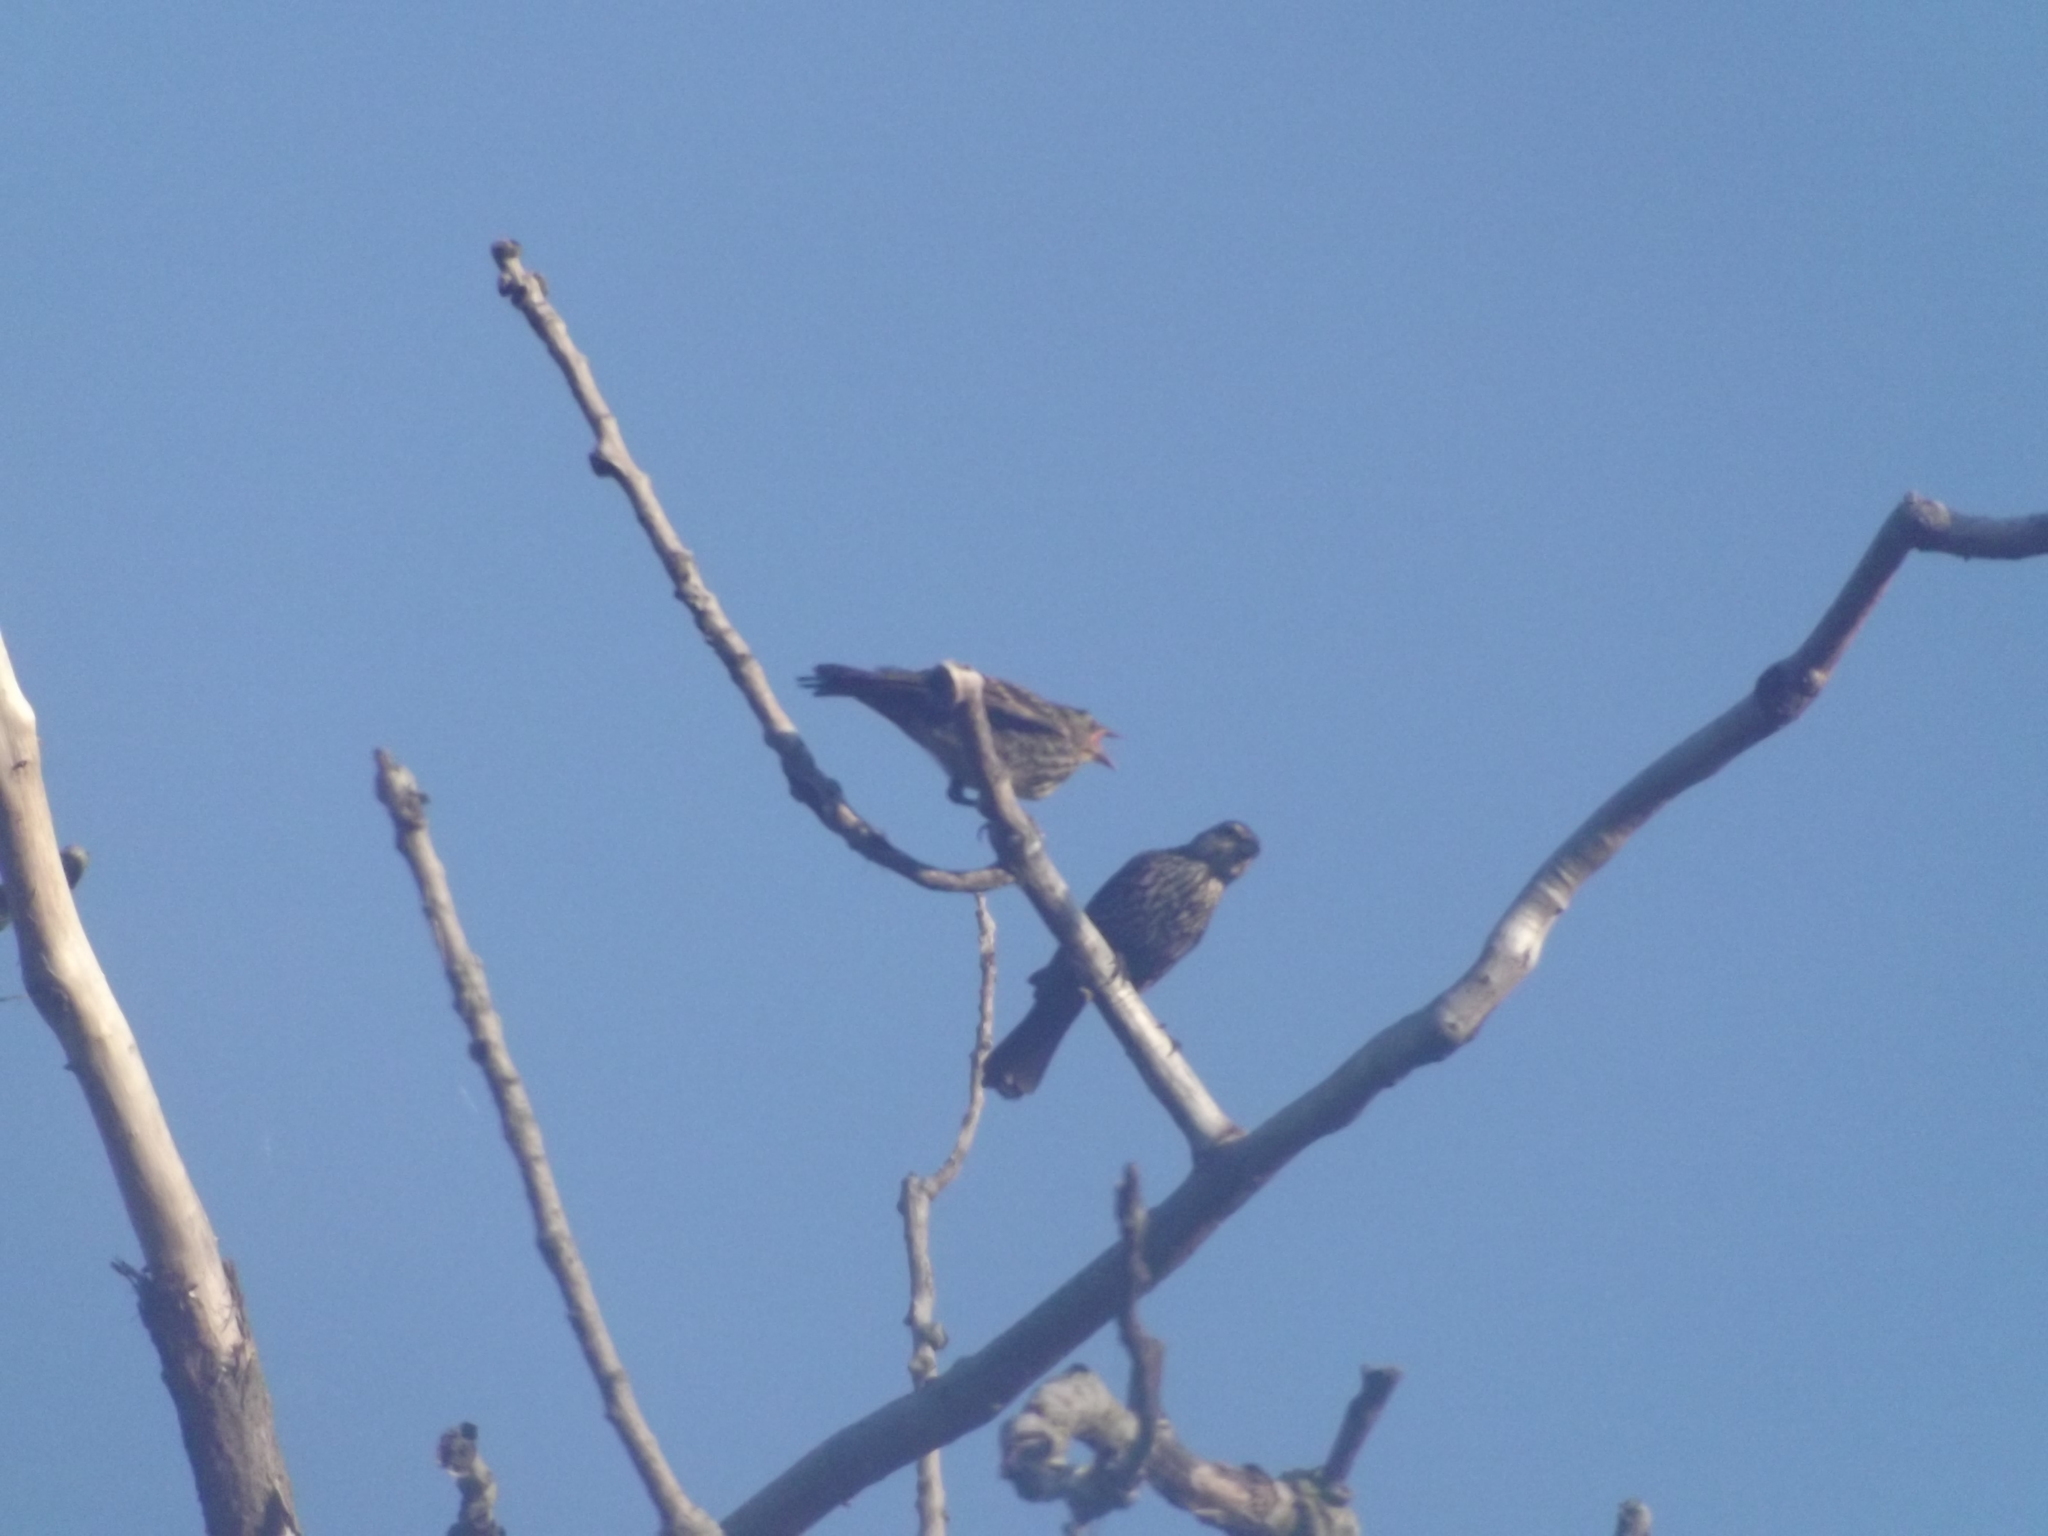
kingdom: Animalia
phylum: Chordata
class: Aves
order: Passeriformes
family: Icteridae
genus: Agelaius
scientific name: Agelaius phoeniceus
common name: Red-winged blackbird
